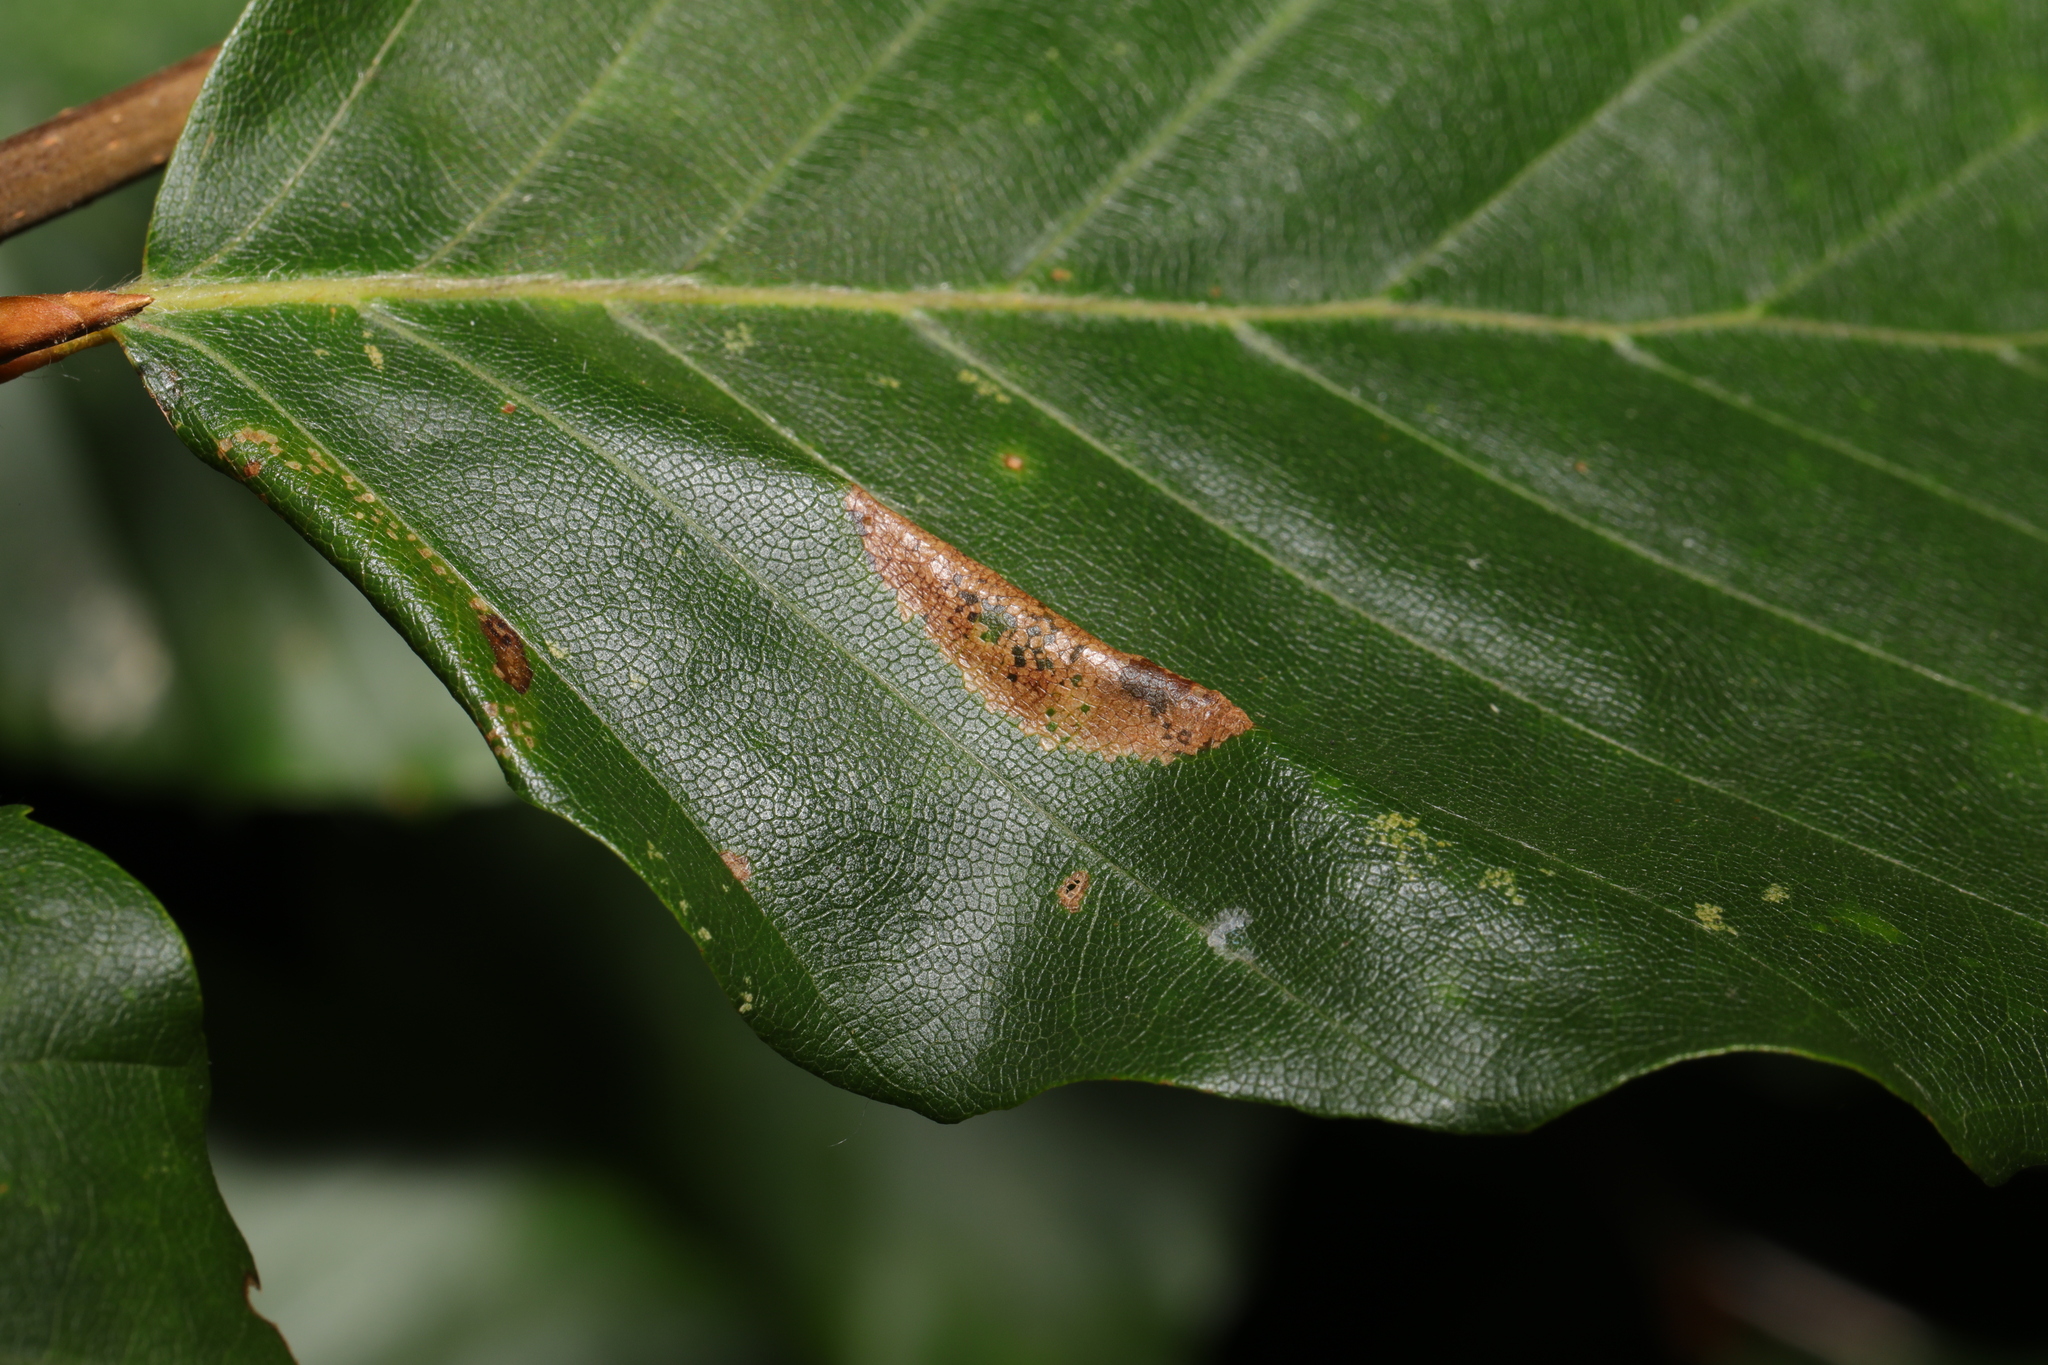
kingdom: Animalia
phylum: Arthropoda
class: Insecta
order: Lepidoptera
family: Gracillariidae
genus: Phyllonorycter
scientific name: Phyllonorycter maestingella
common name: Beech midget
